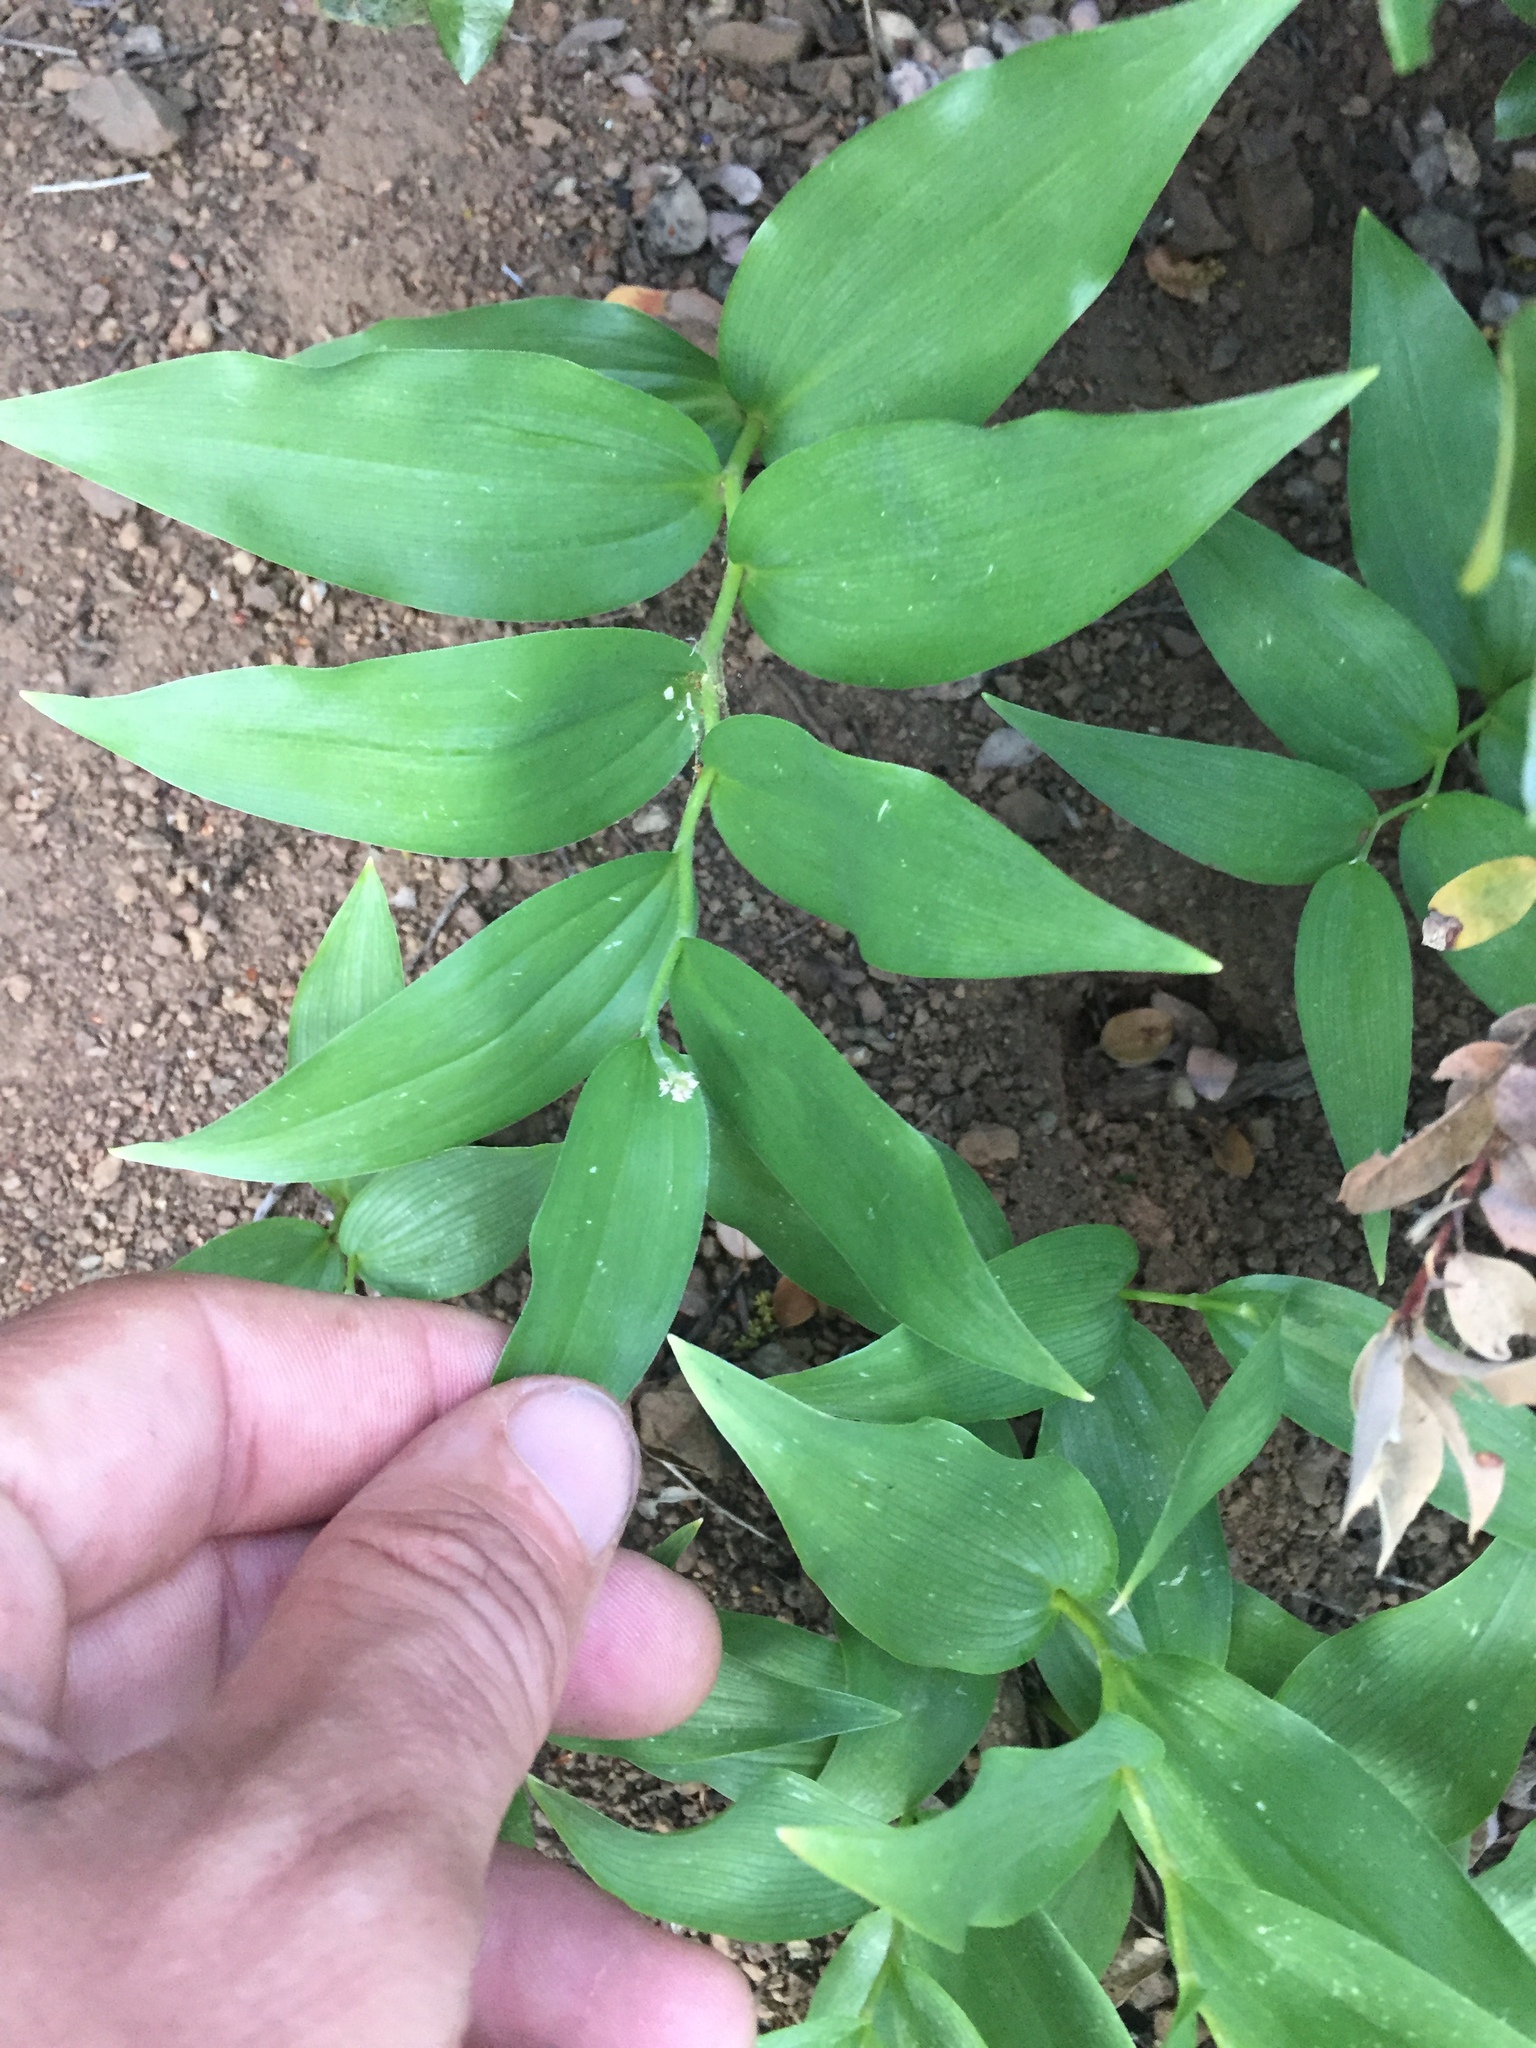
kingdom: Plantae
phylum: Tracheophyta
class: Liliopsida
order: Asparagales
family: Asparagaceae
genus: Maianthemum
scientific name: Maianthemum racemosum
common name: False spikenard
